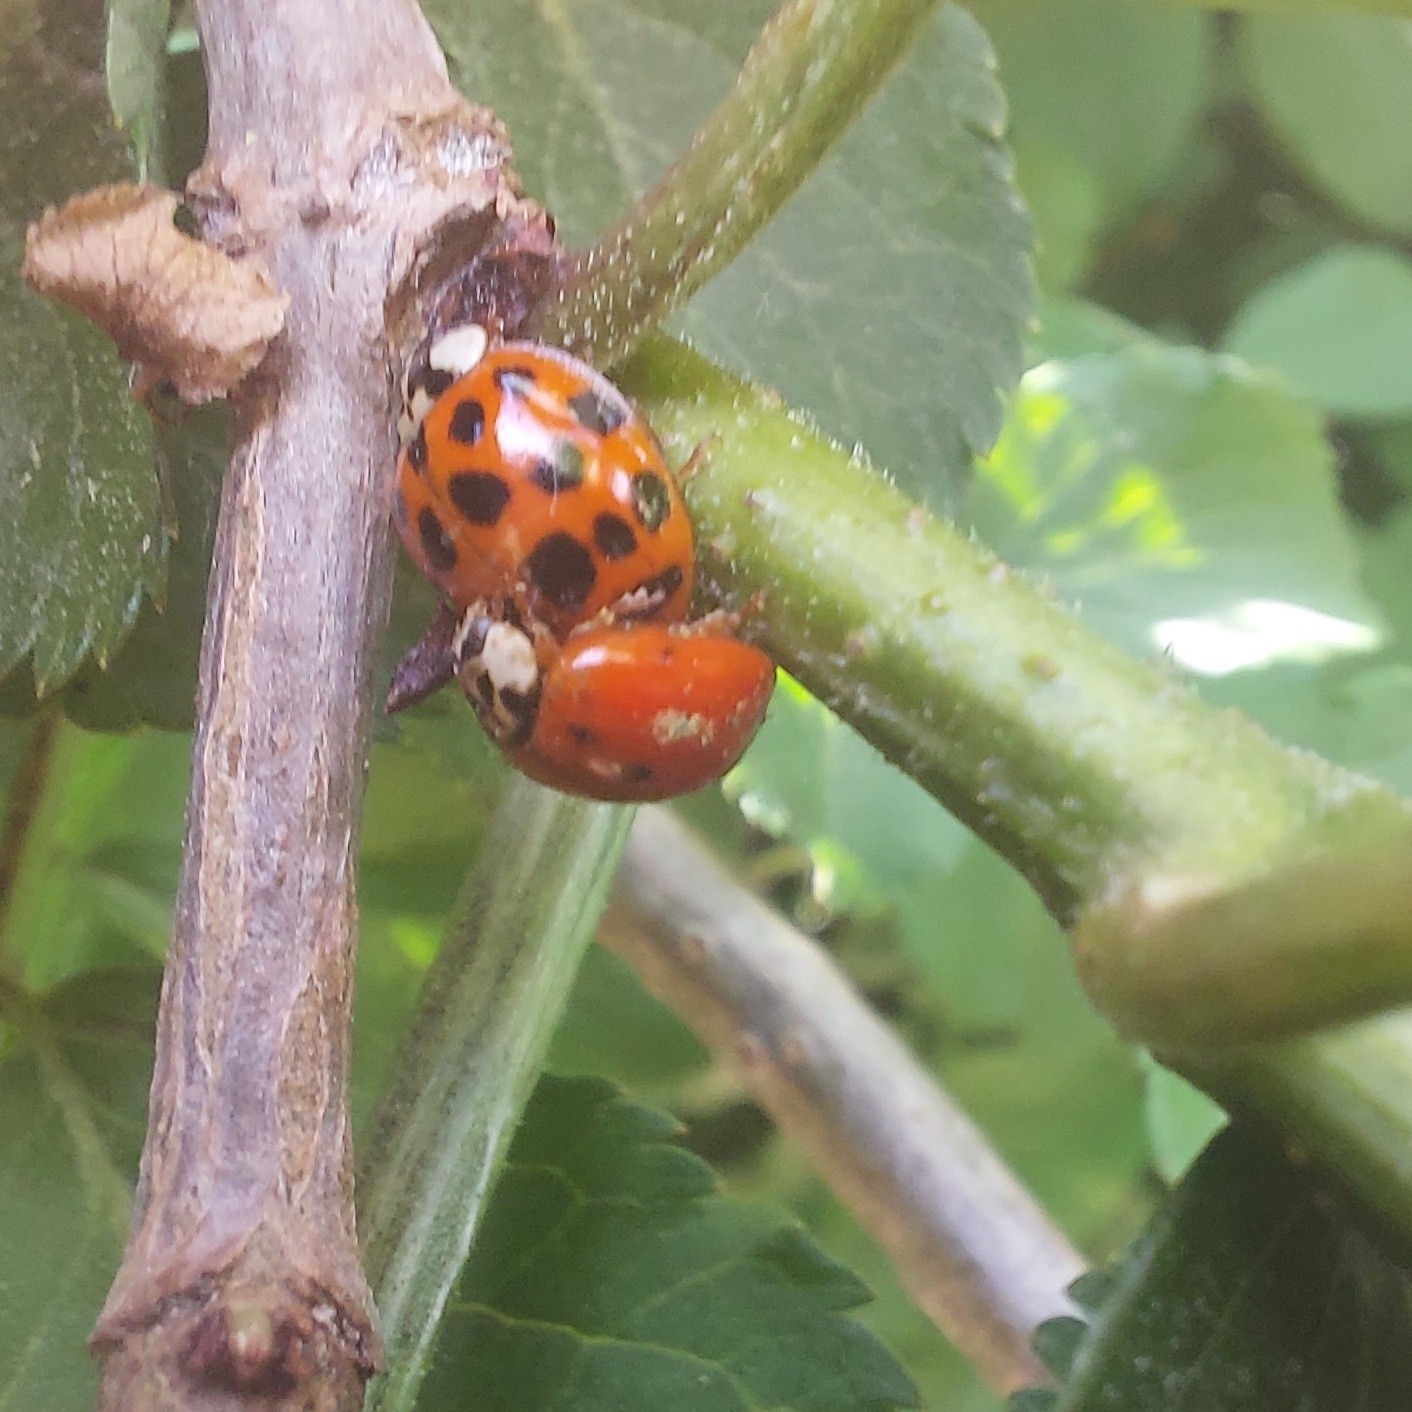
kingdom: Animalia
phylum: Arthropoda
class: Insecta
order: Coleoptera
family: Coccinellidae
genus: Harmonia
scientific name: Harmonia axyridis
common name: Harlequin ladybird
